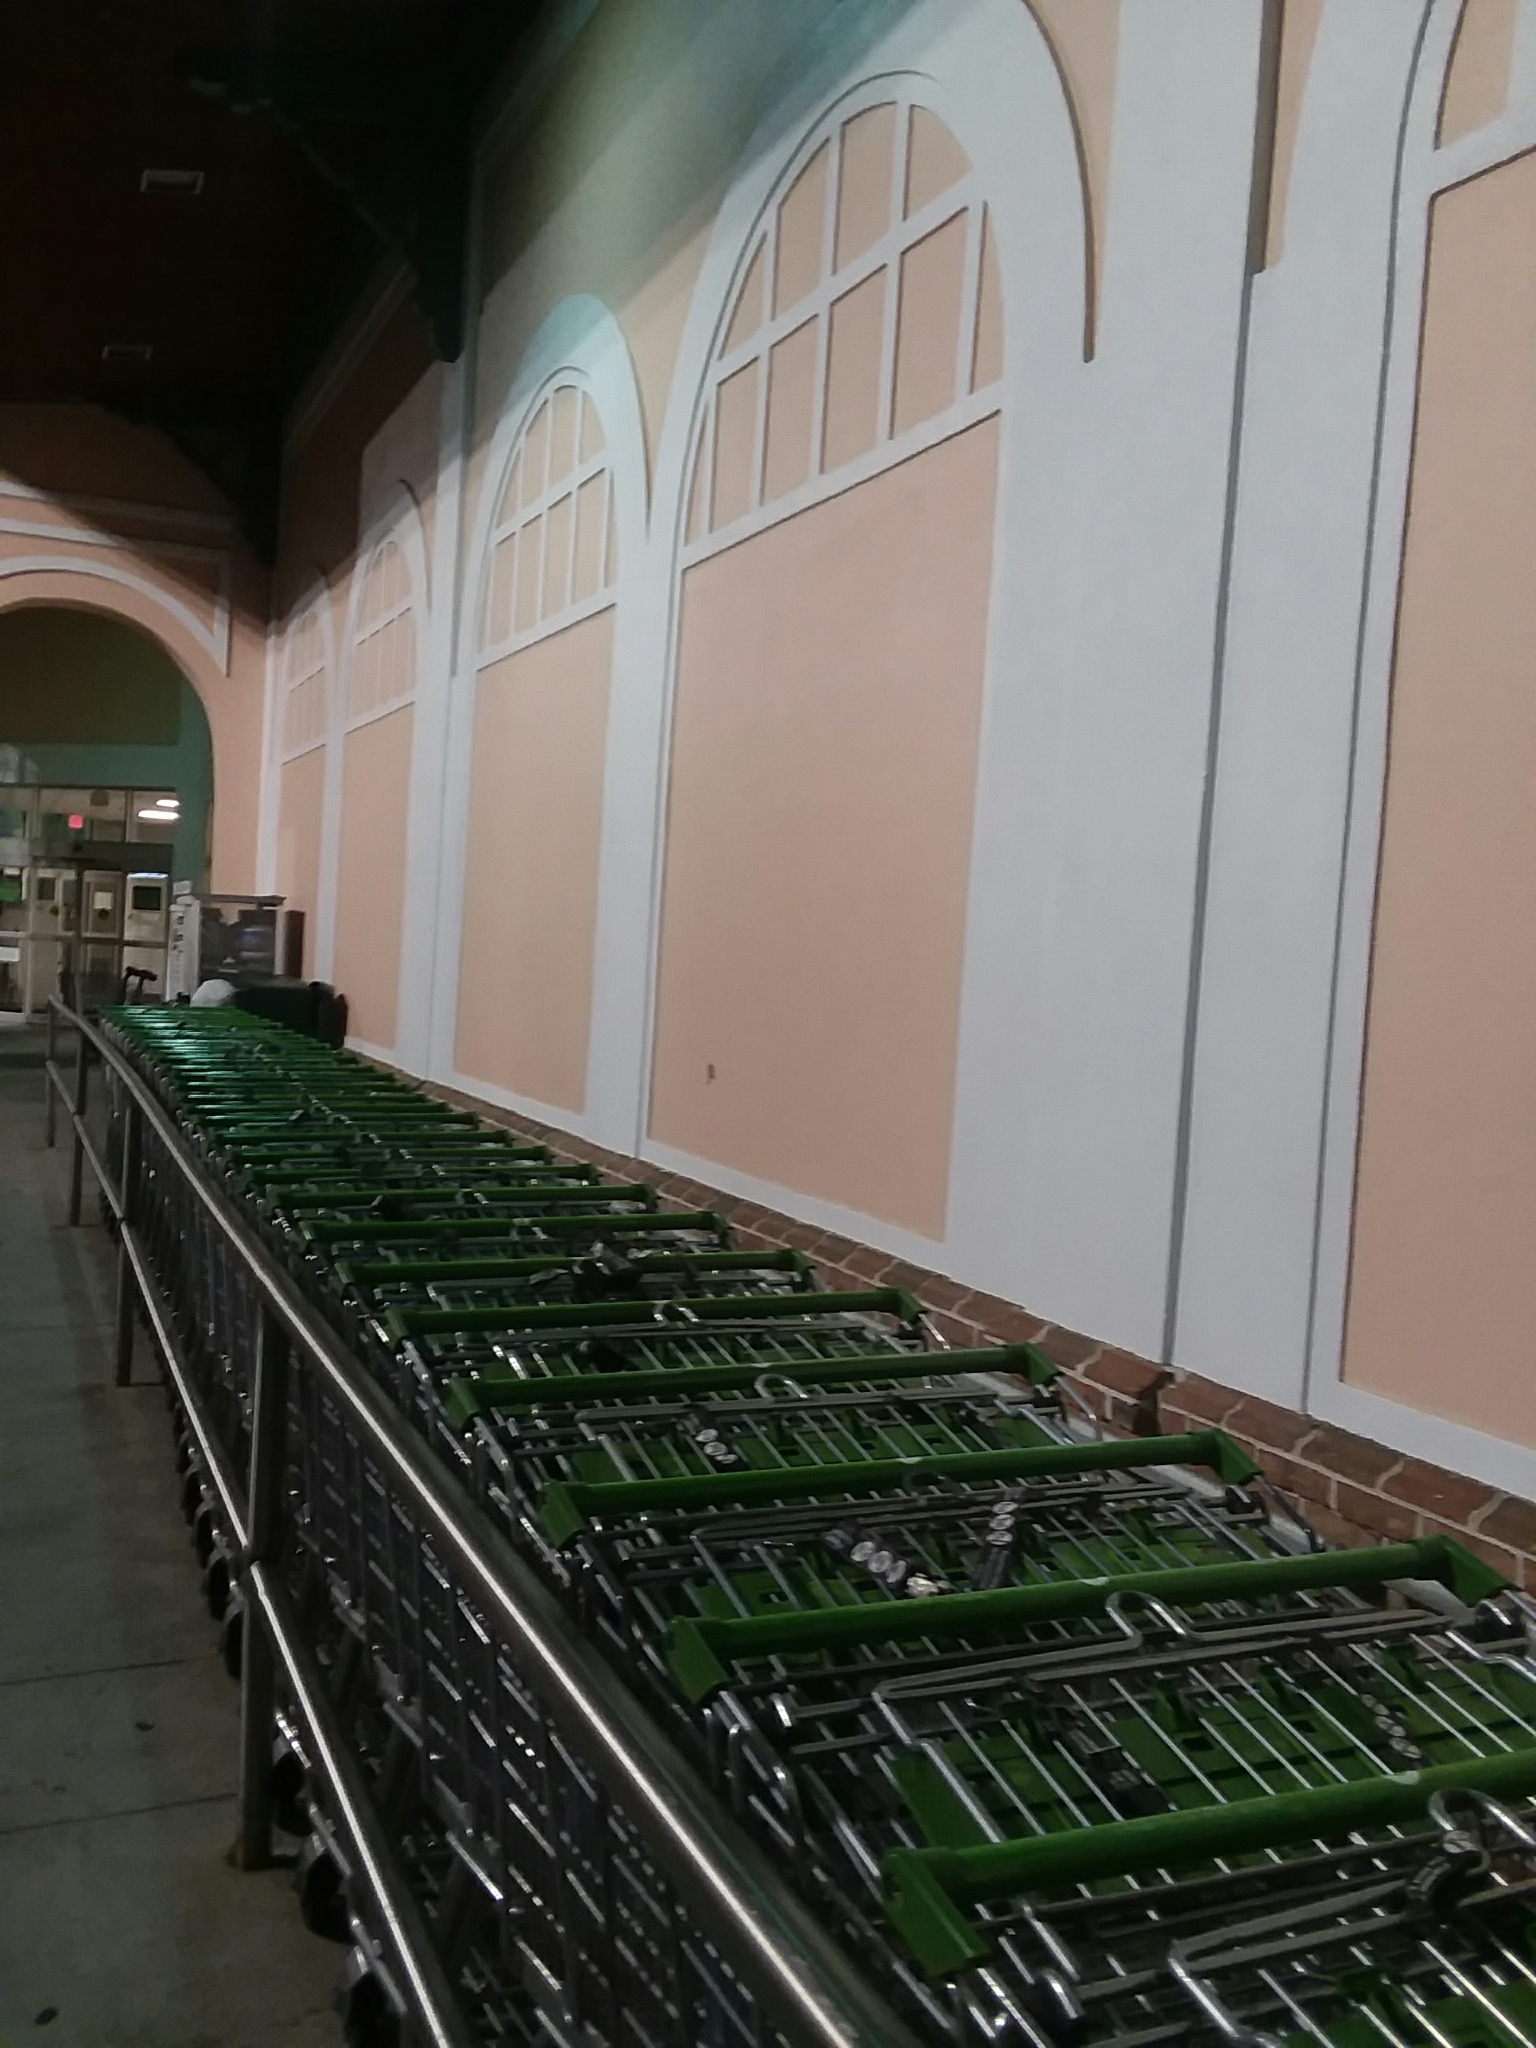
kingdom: Animalia
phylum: Arthropoda
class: Insecta
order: Lepidoptera
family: Saturniidae
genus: Actias
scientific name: Actias luna
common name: Luna moth
